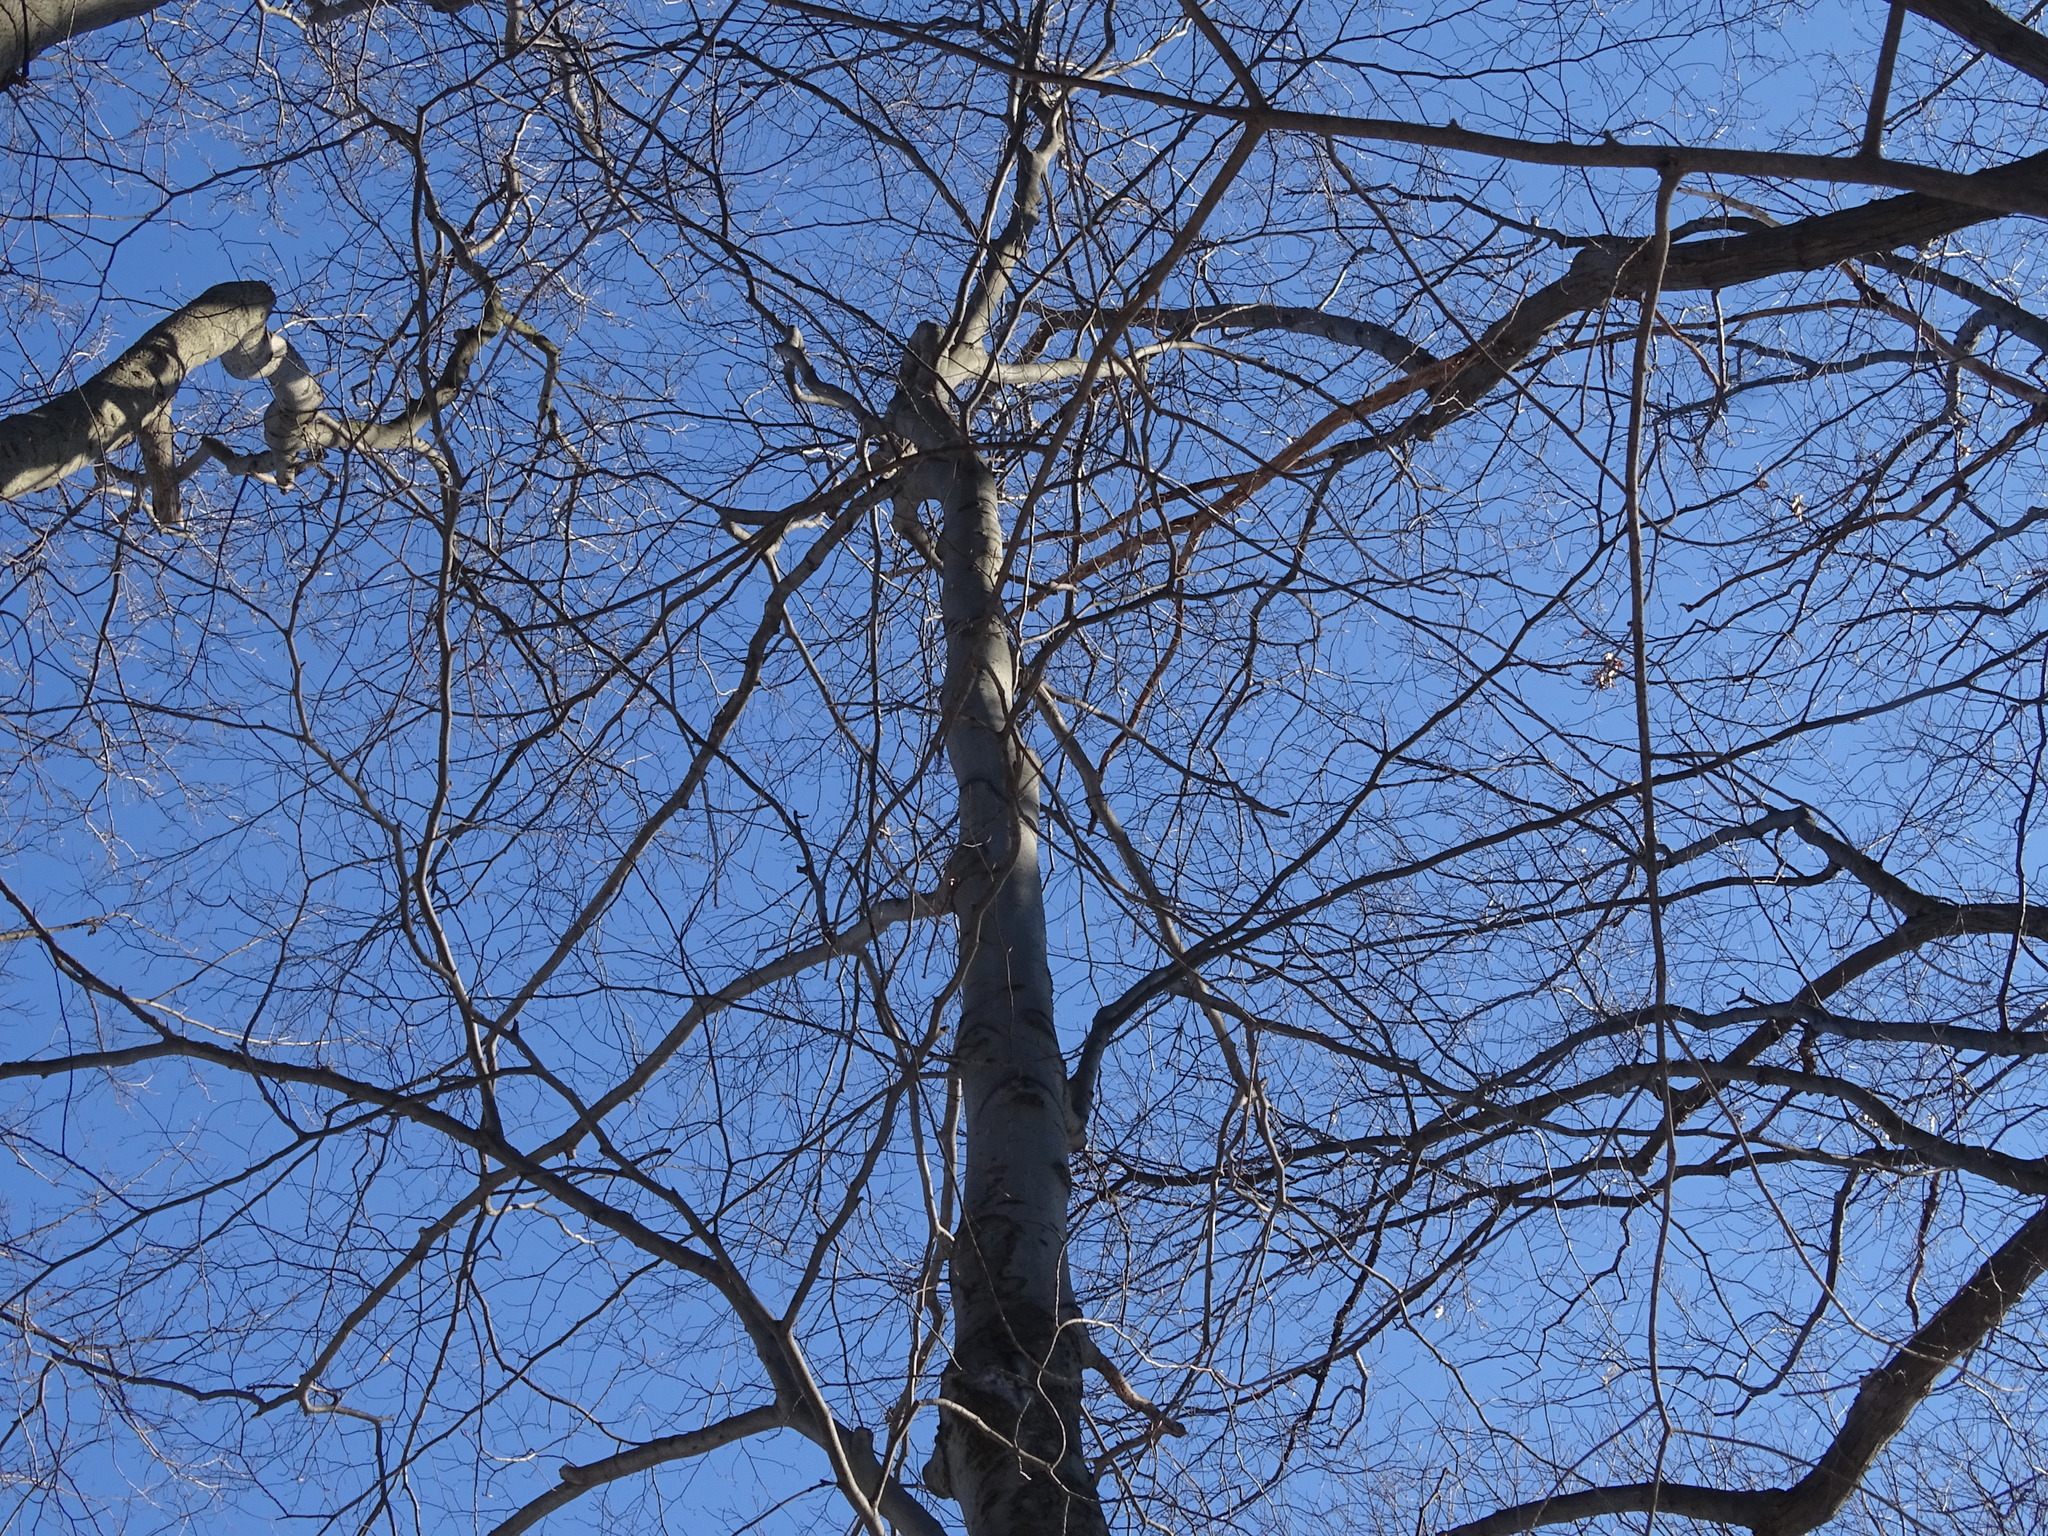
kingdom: Plantae
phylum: Tracheophyta
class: Magnoliopsida
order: Fagales
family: Fagaceae
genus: Fagus
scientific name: Fagus grandifolia
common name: American beech
